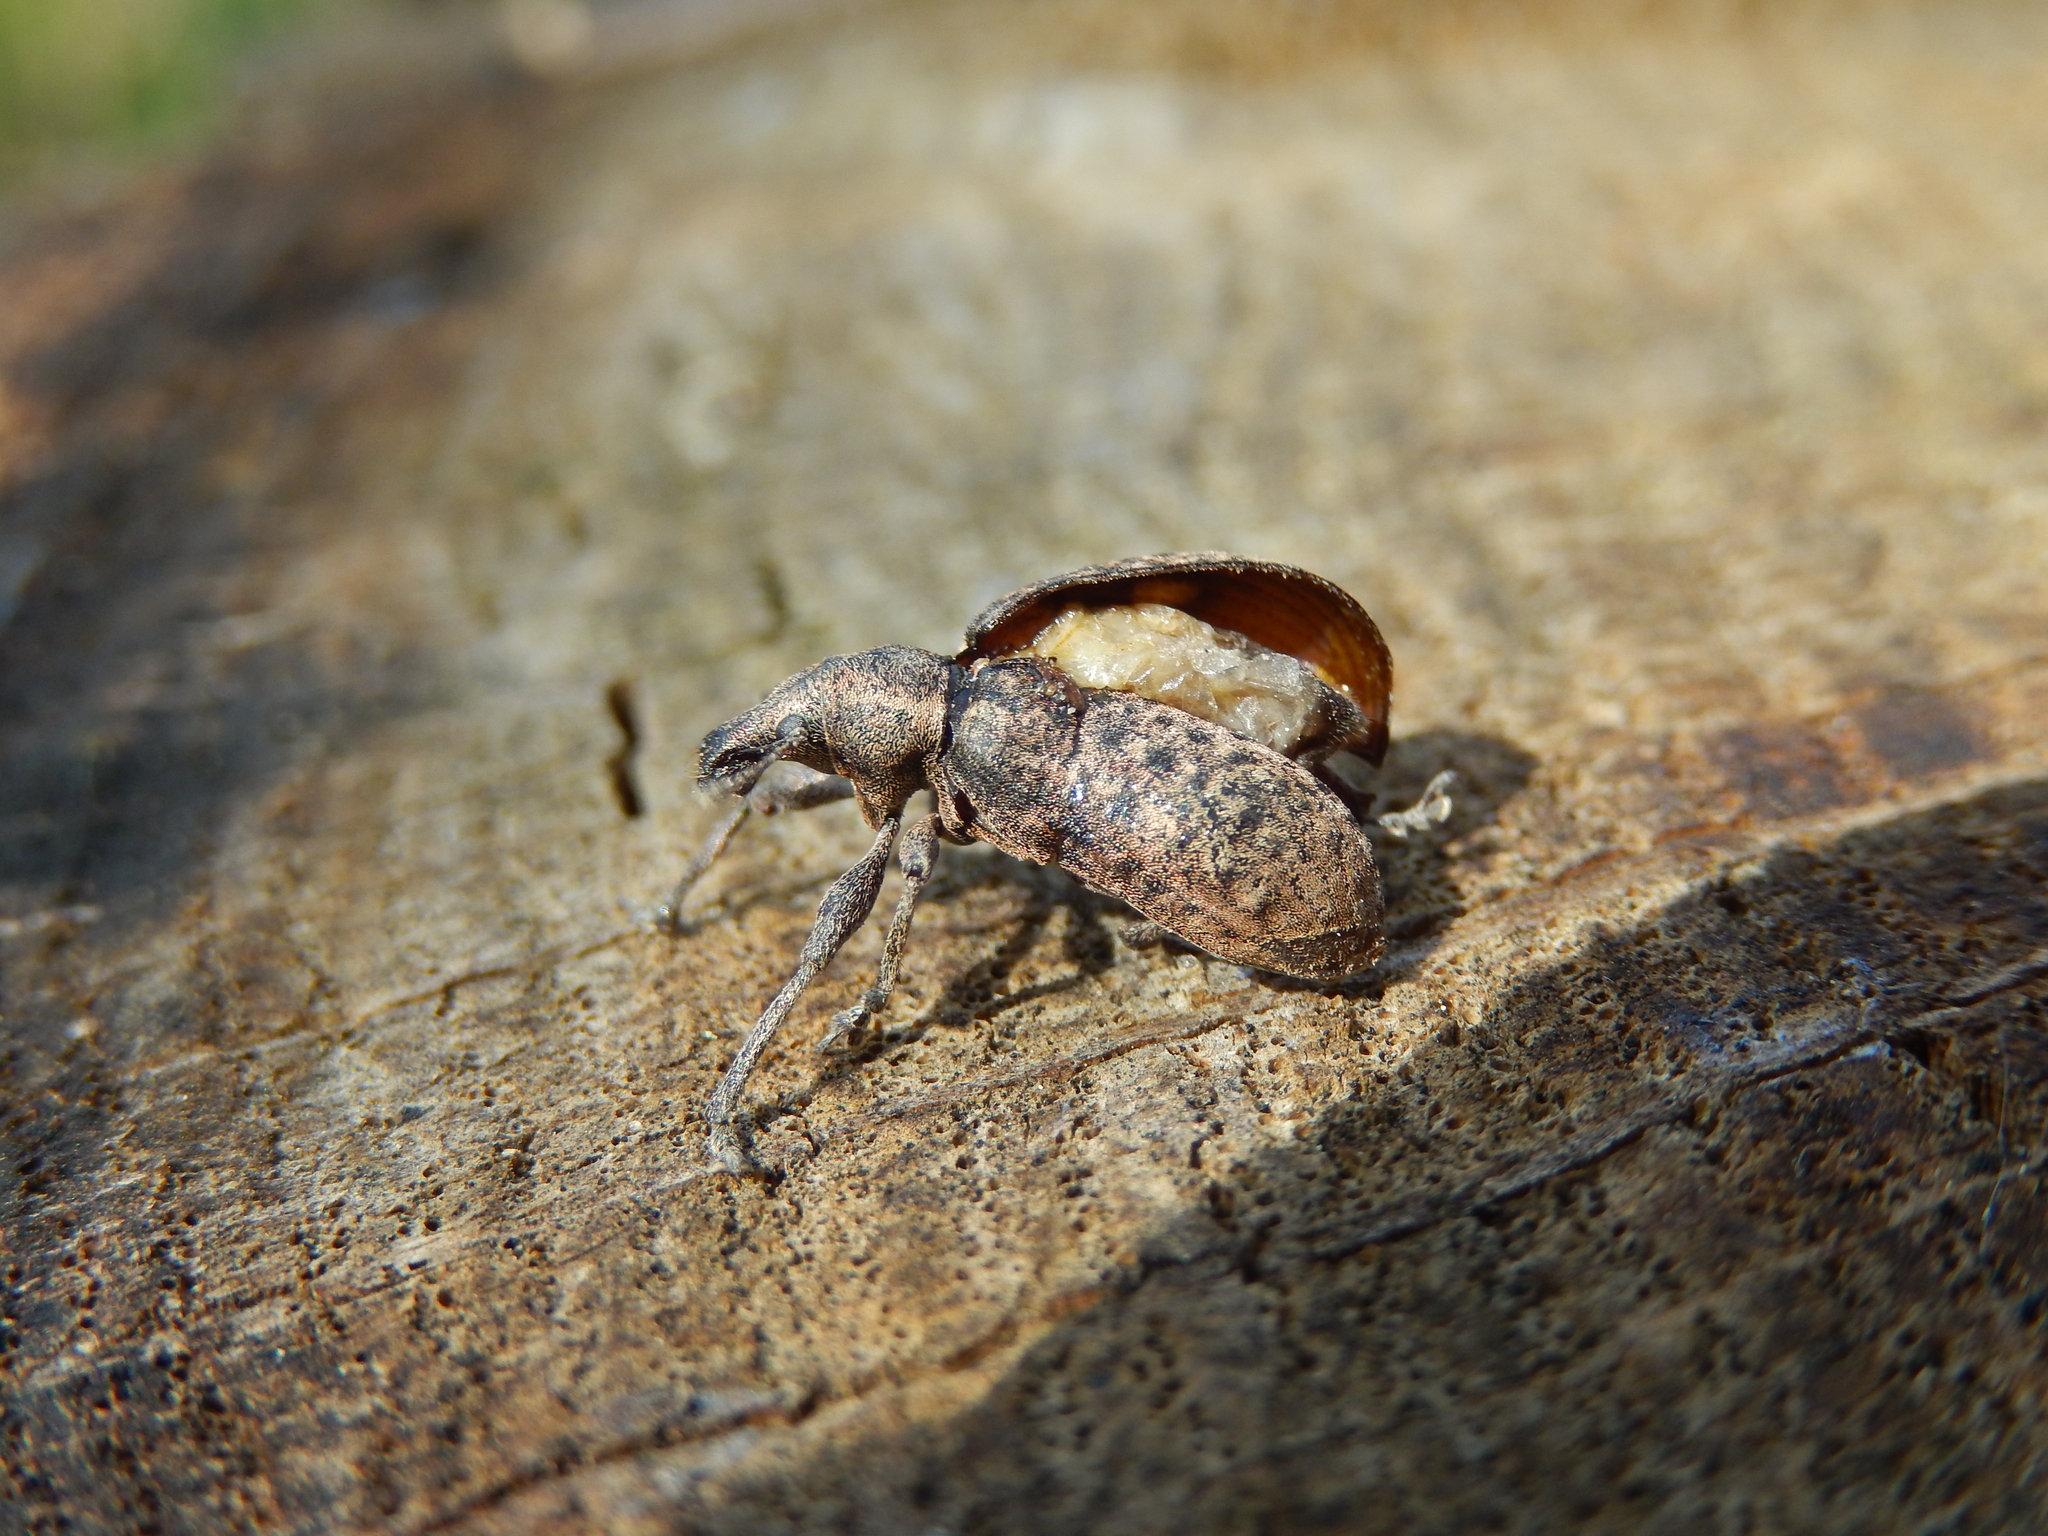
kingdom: Animalia
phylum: Arthropoda
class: Insecta
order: Coleoptera
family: Curculionidae
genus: Liophloeus
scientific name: Liophloeus tessulatus
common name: Weevil
